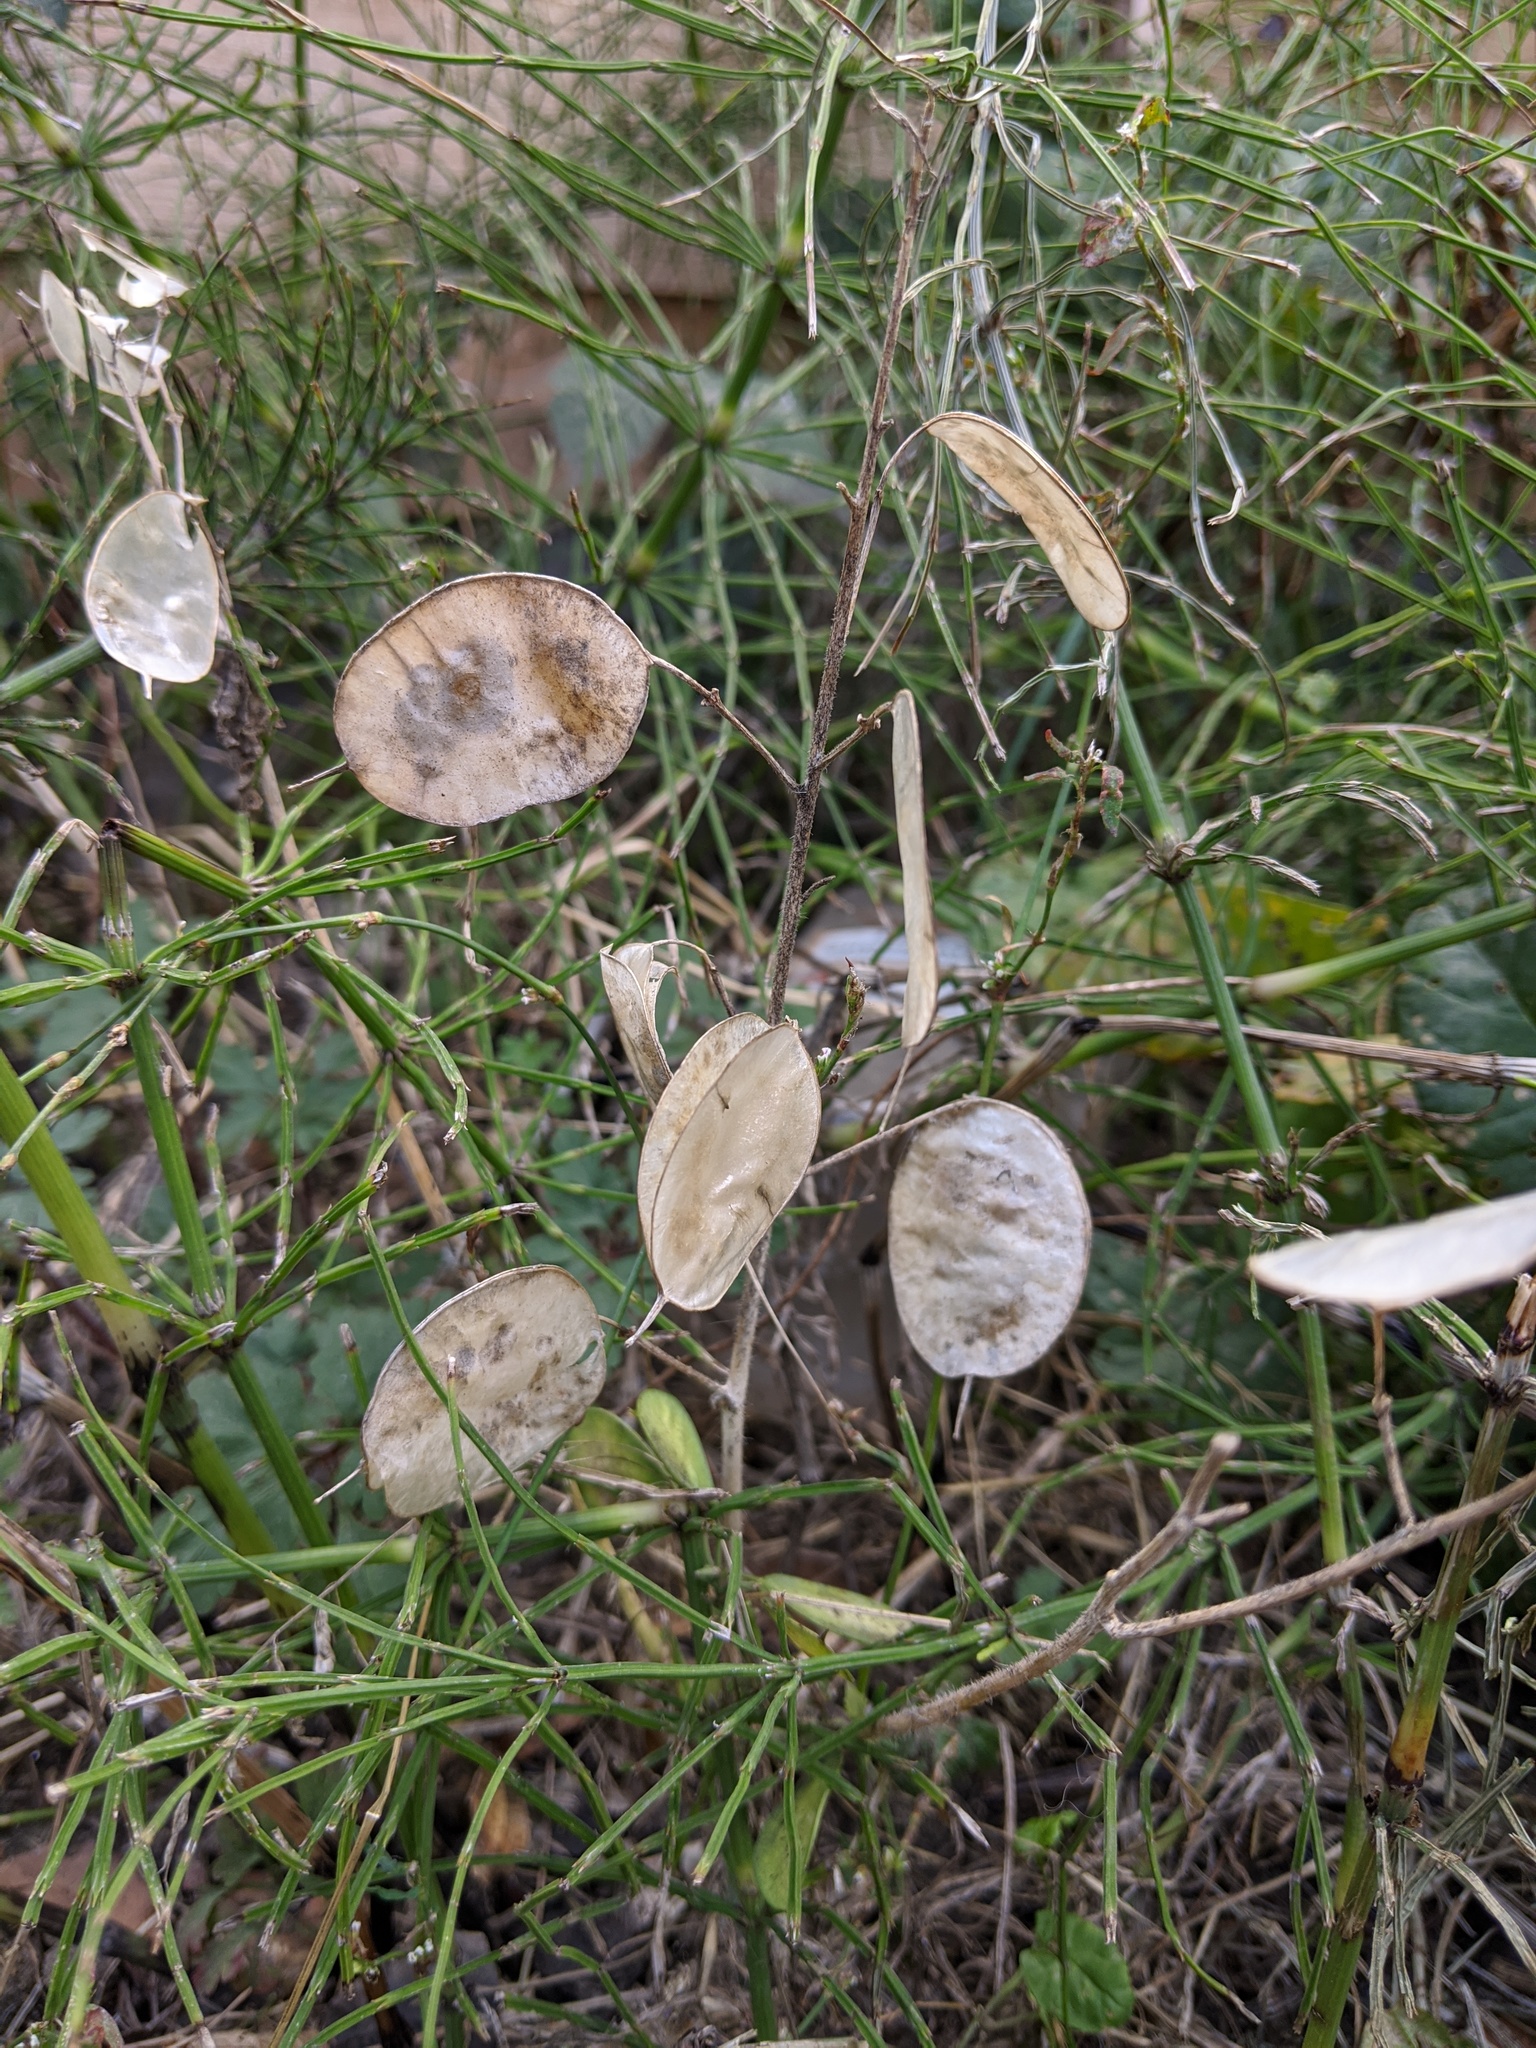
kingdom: Plantae
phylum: Tracheophyta
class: Magnoliopsida
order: Brassicales
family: Brassicaceae
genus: Lunaria
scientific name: Lunaria annua
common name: Honesty
